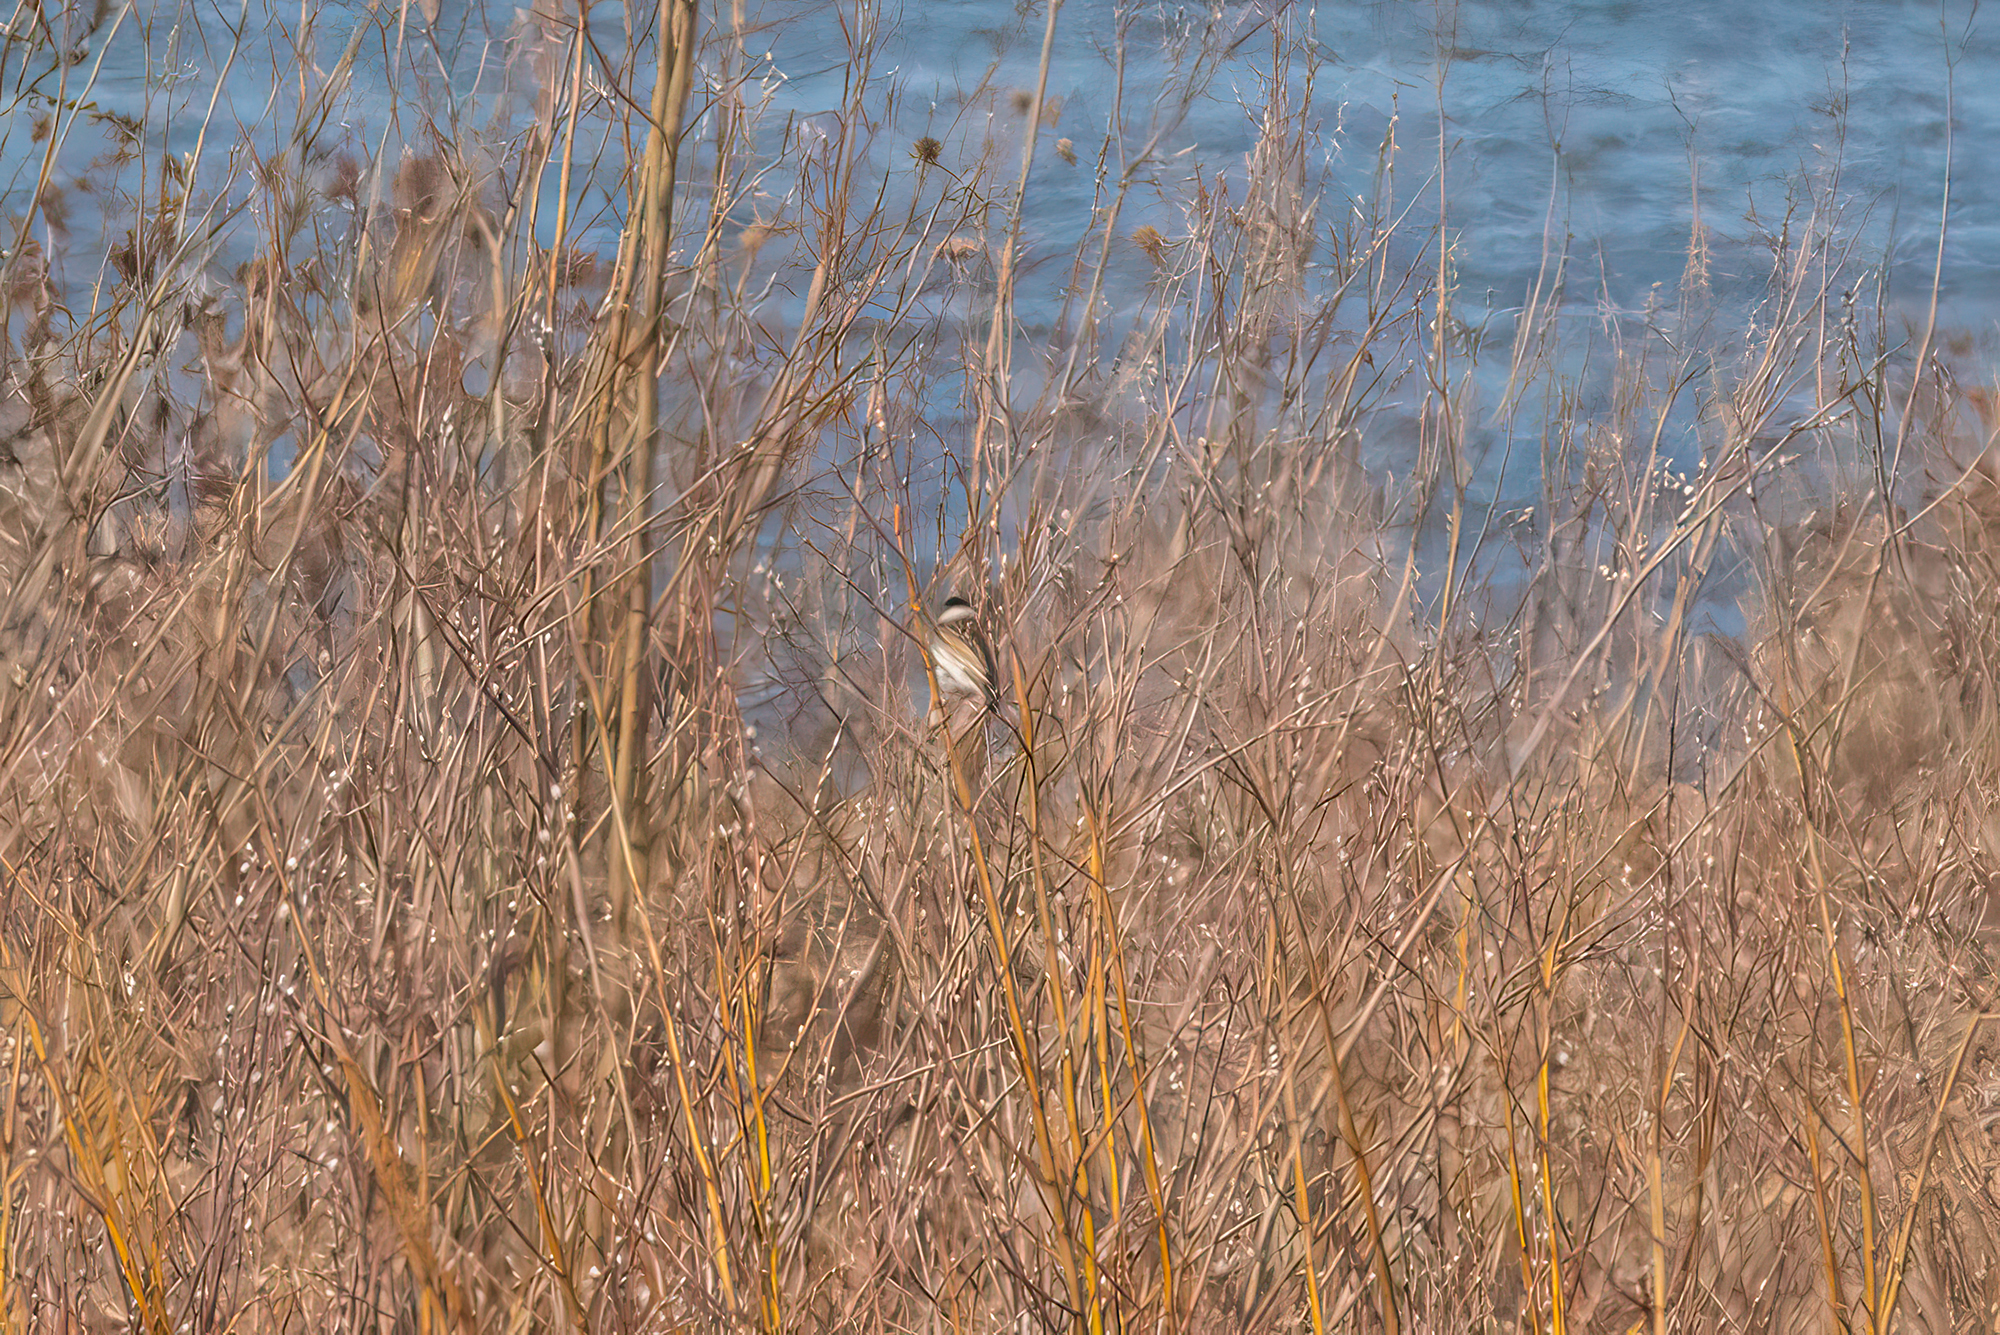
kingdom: Animalia
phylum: Chordata
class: Aves
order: Passeriformes
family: Emberizidae
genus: Emberiza
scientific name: Emberiza schoeniclus
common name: Reed bunting
